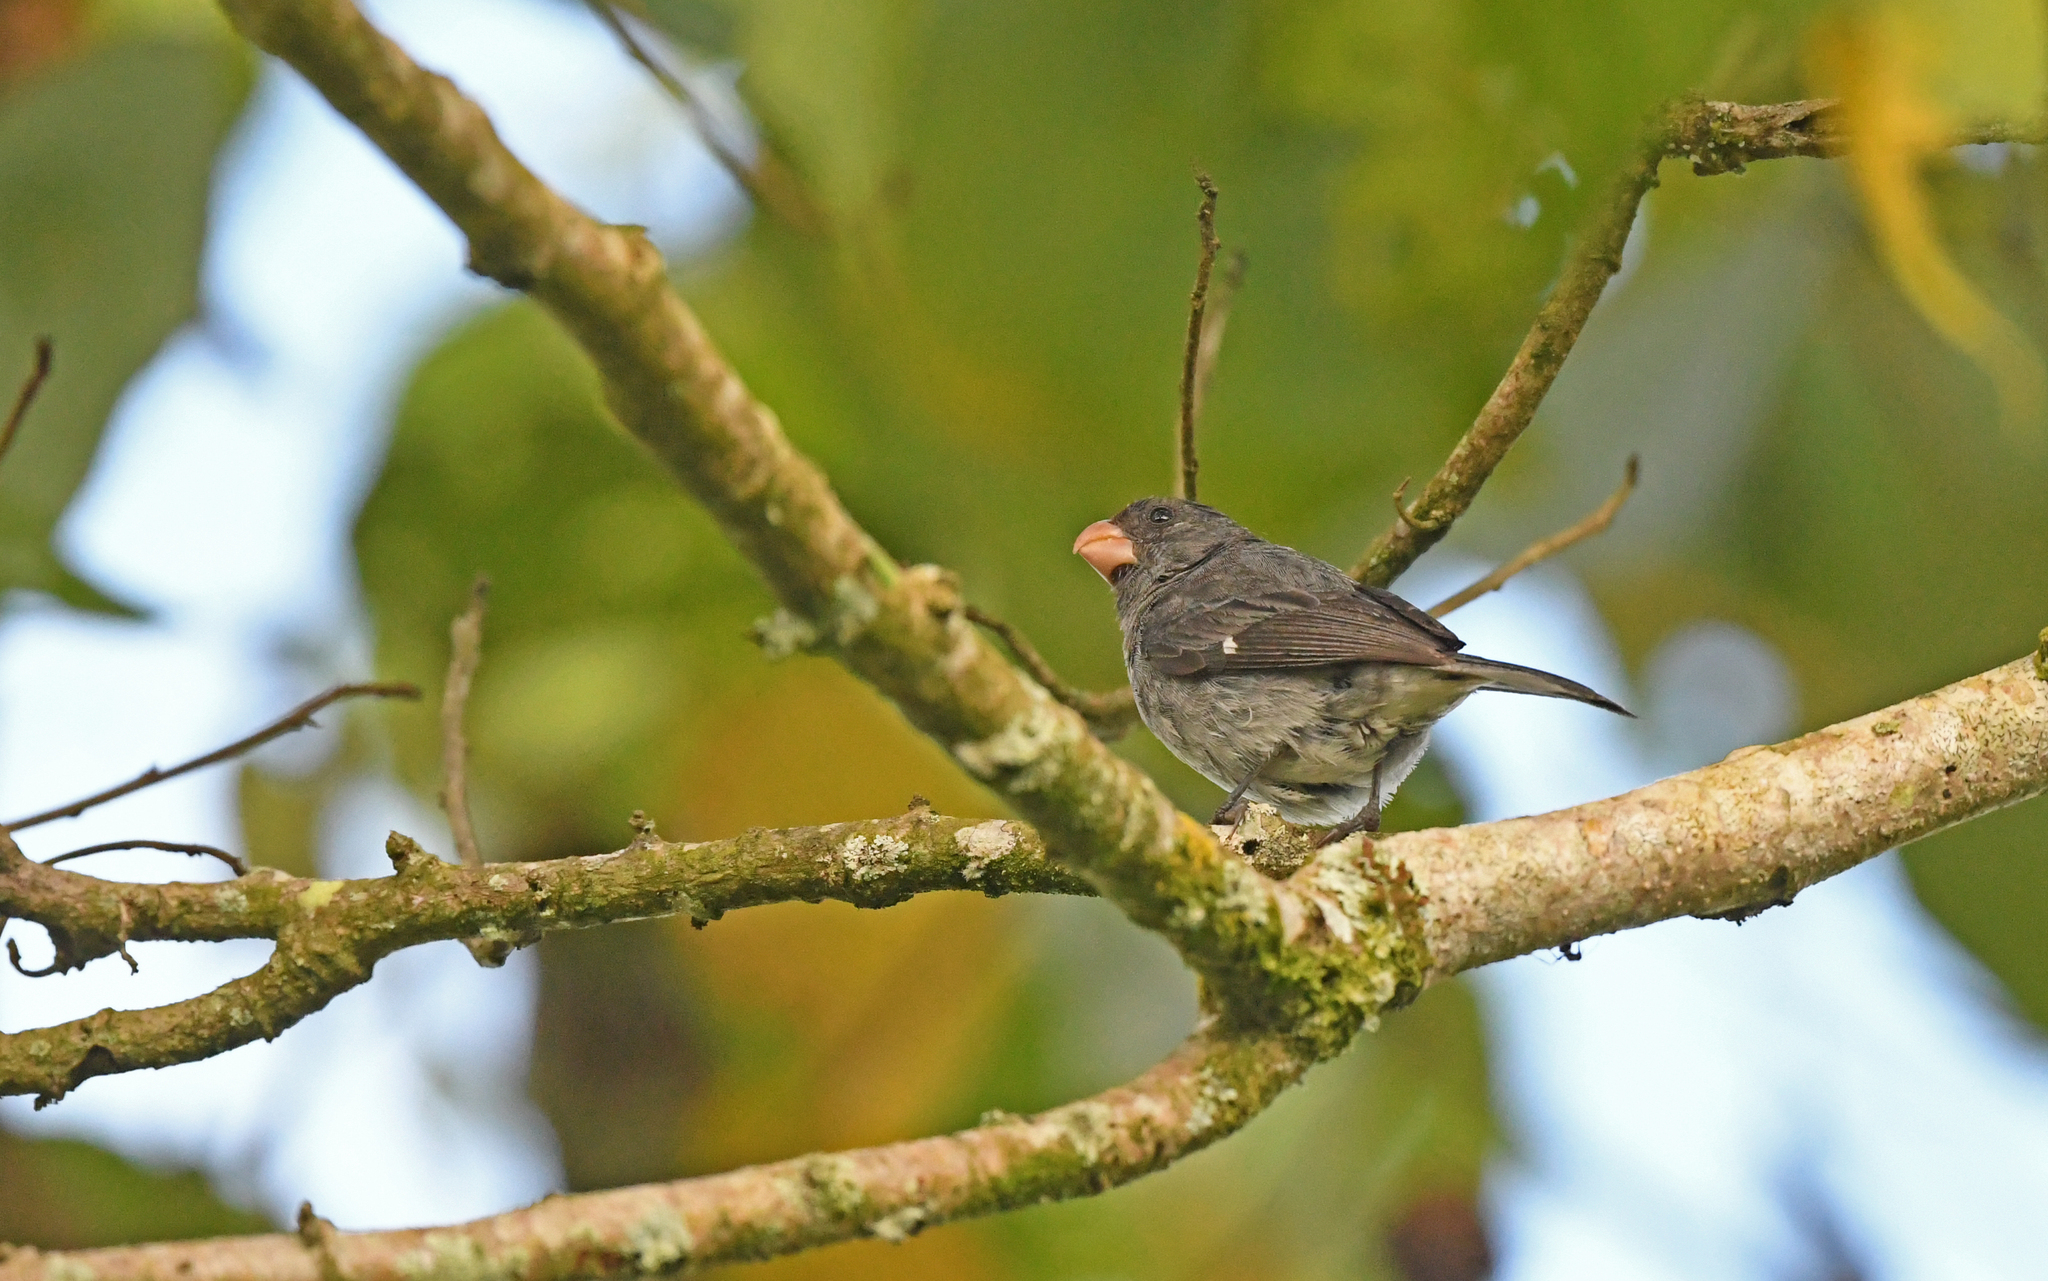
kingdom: Animalia
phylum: Chordata
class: Aves
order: Passeriformes
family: Thraupidae
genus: Sporophila
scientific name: Sporophila intermedia
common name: Grey seedeater
